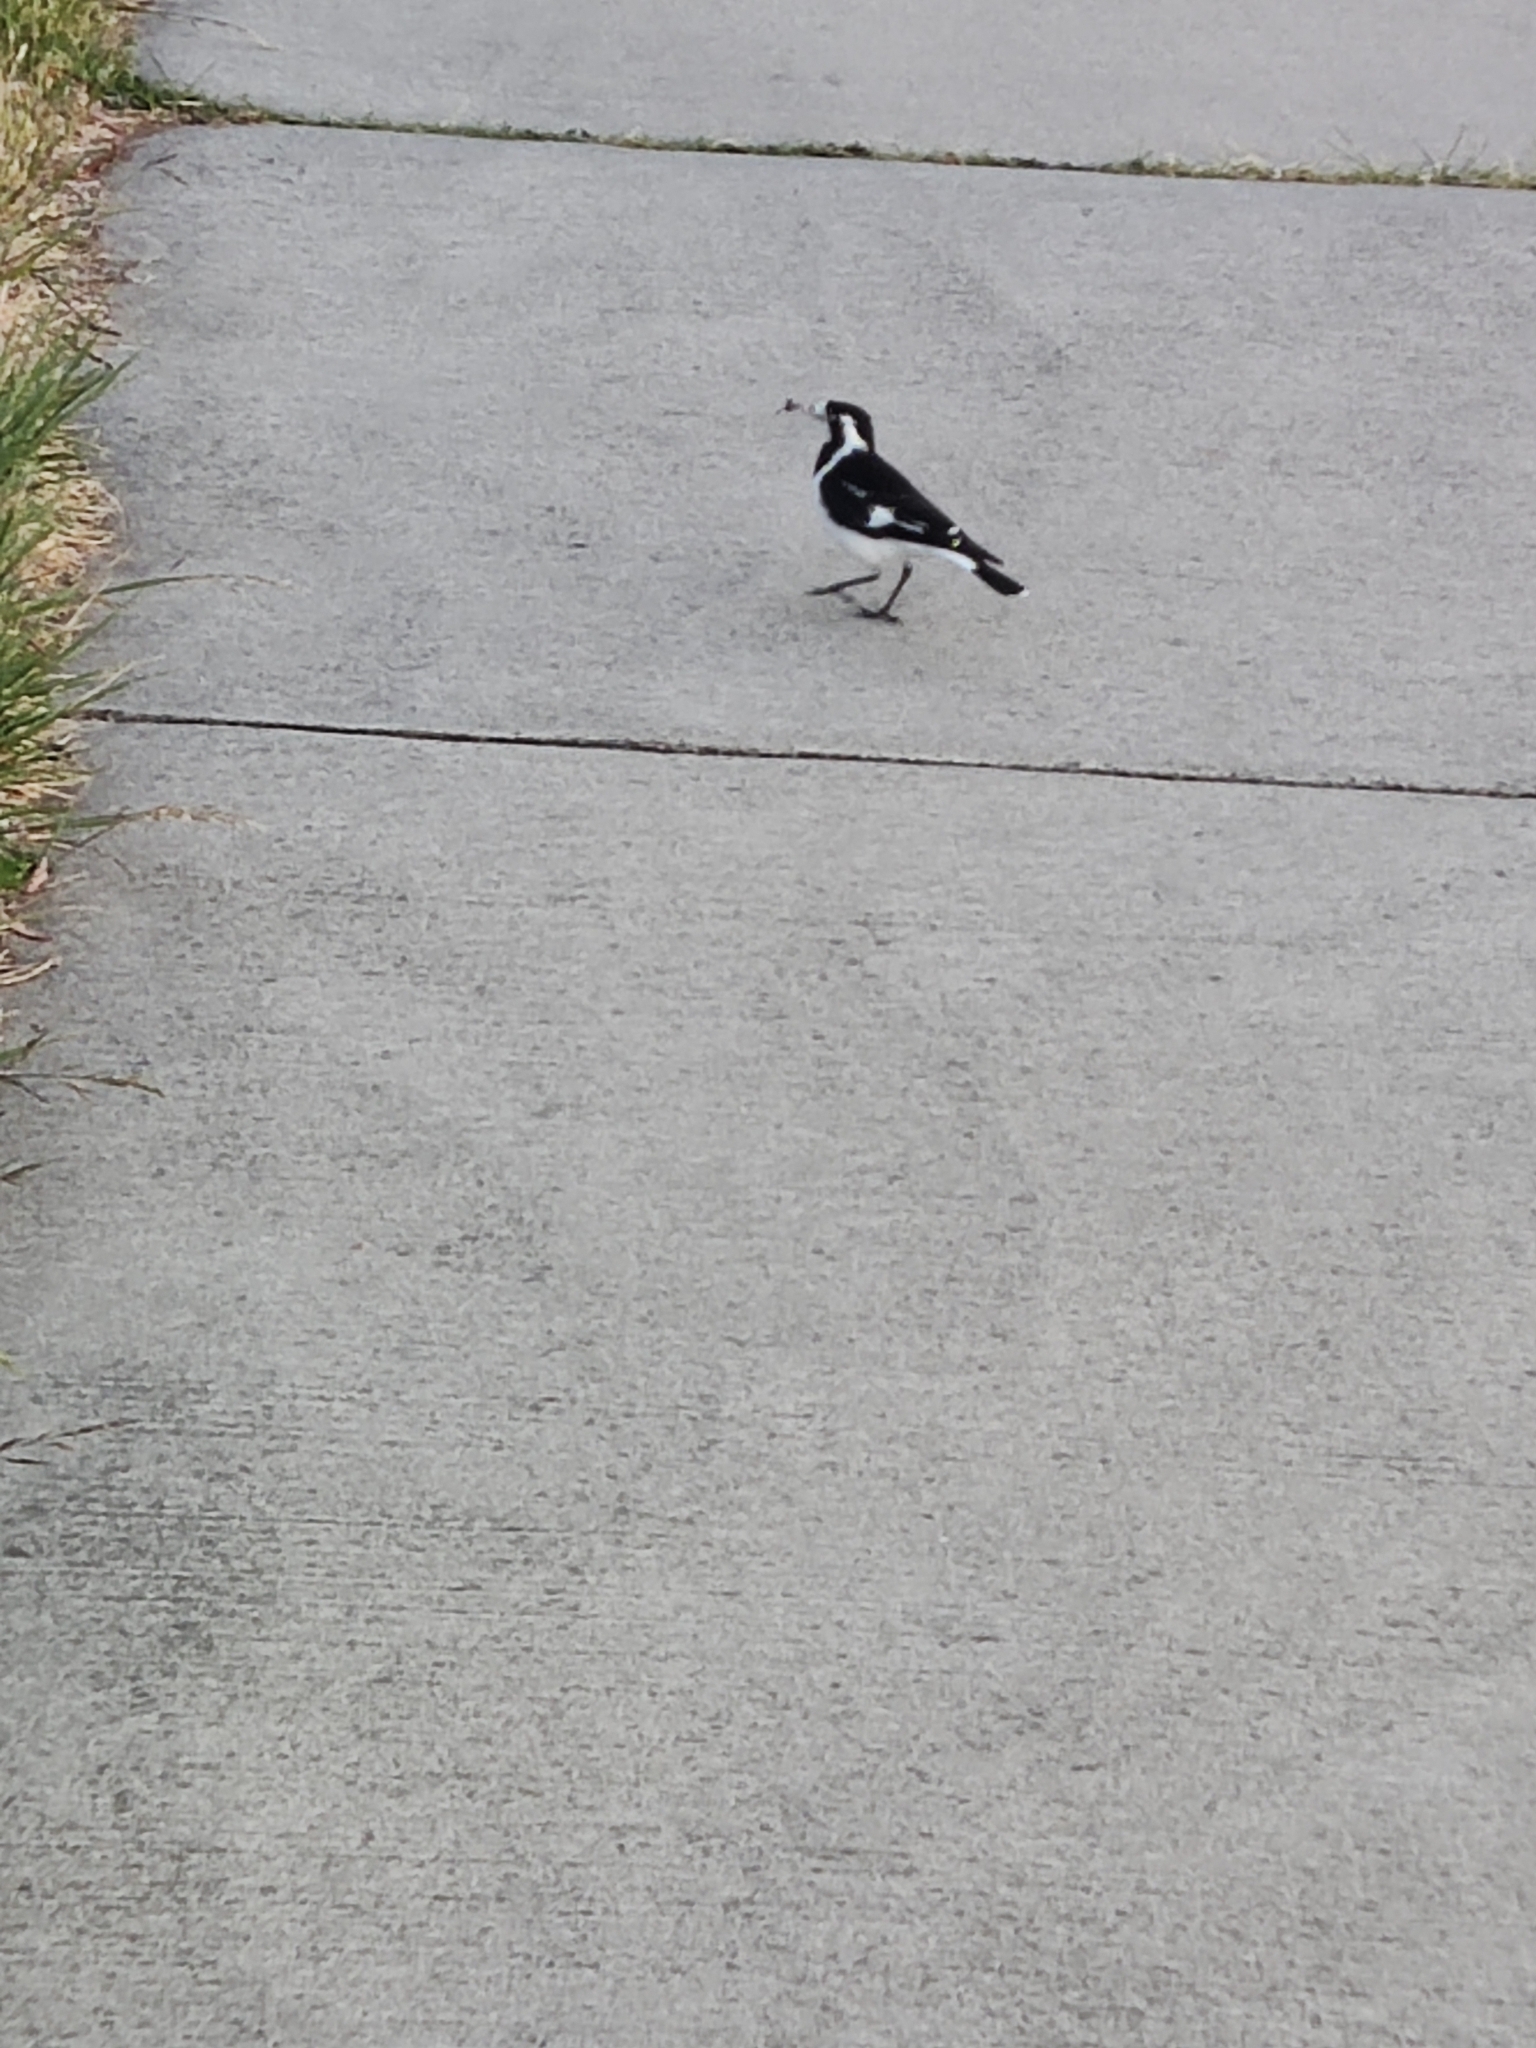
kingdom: Animalia
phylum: Chordata
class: Aves
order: Passeriformes
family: Monarchidae
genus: Grallina
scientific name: Grallina cyanoleuca
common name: Magpie-lark
